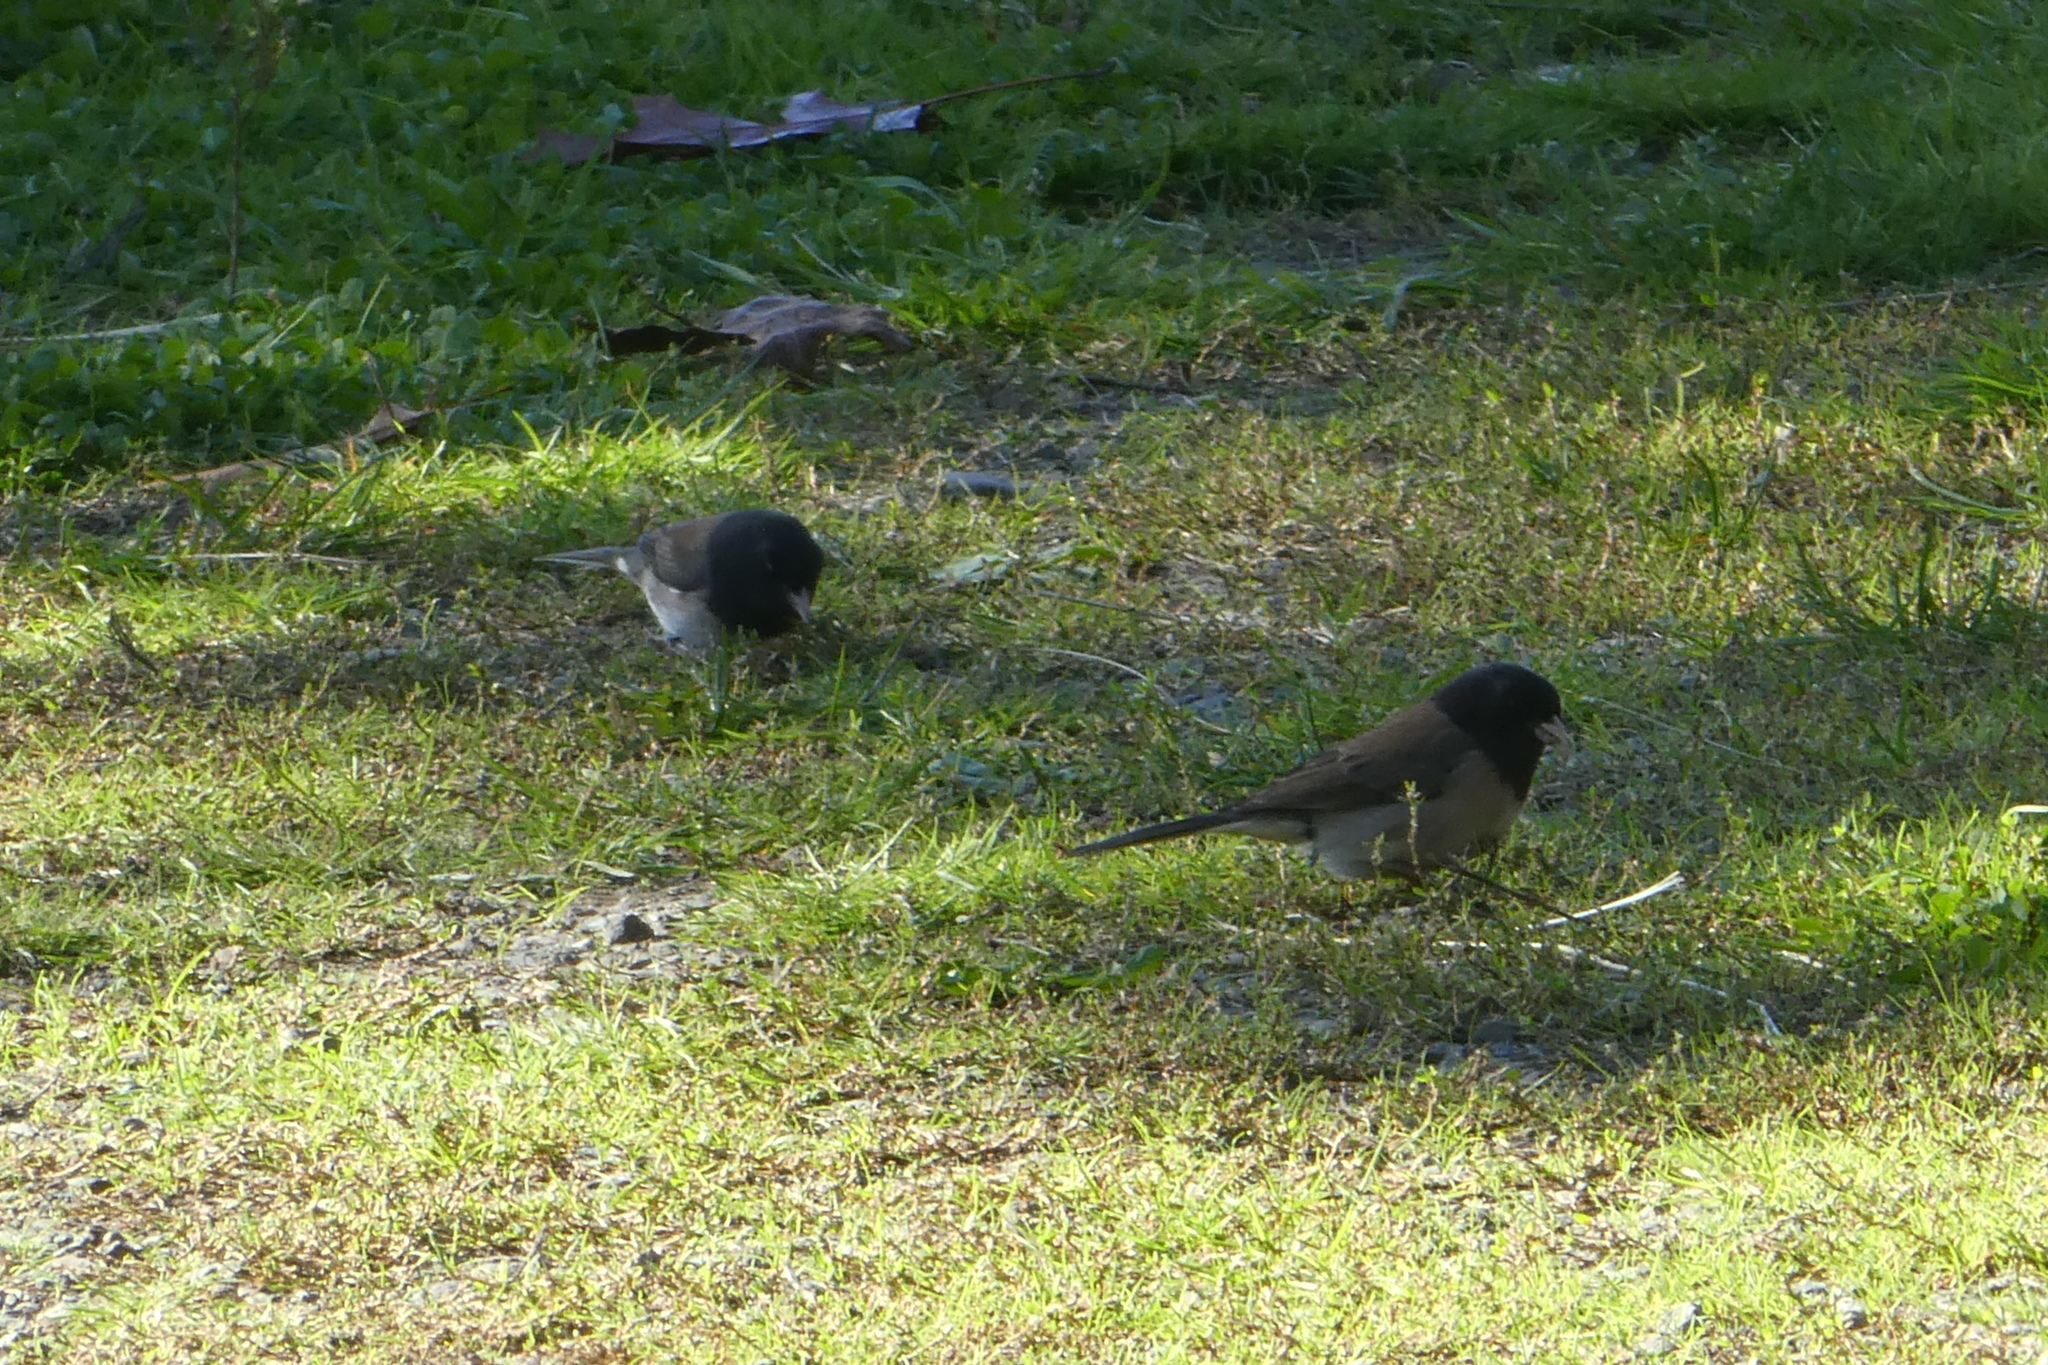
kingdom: Animalia
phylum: Chordata
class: Aves
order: Passeriformes
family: Passerellidae
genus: Junco
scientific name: Junco hyemalis
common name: Dark-eyed junco
